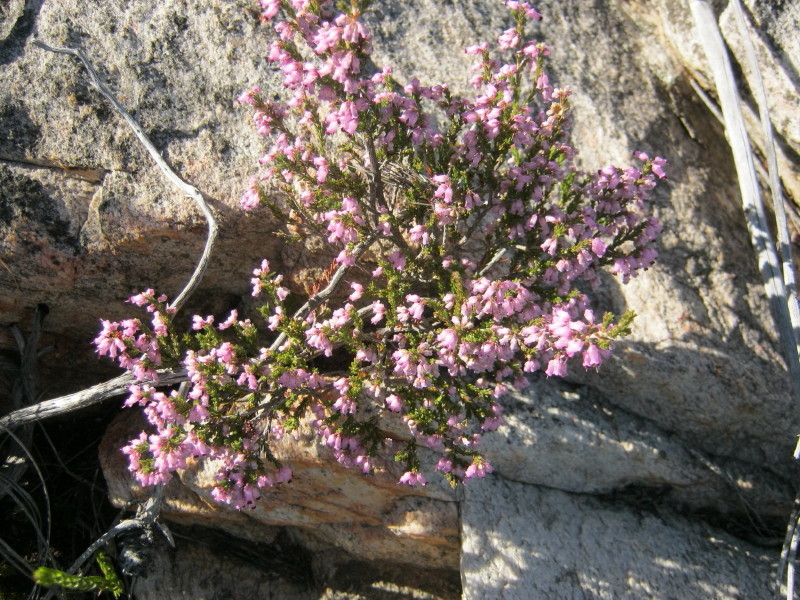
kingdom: Plantae
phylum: Tracheophyta
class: Magnoliopsida
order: Ericales
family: Ericaceae
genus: Erica
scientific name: Erica vlokii
